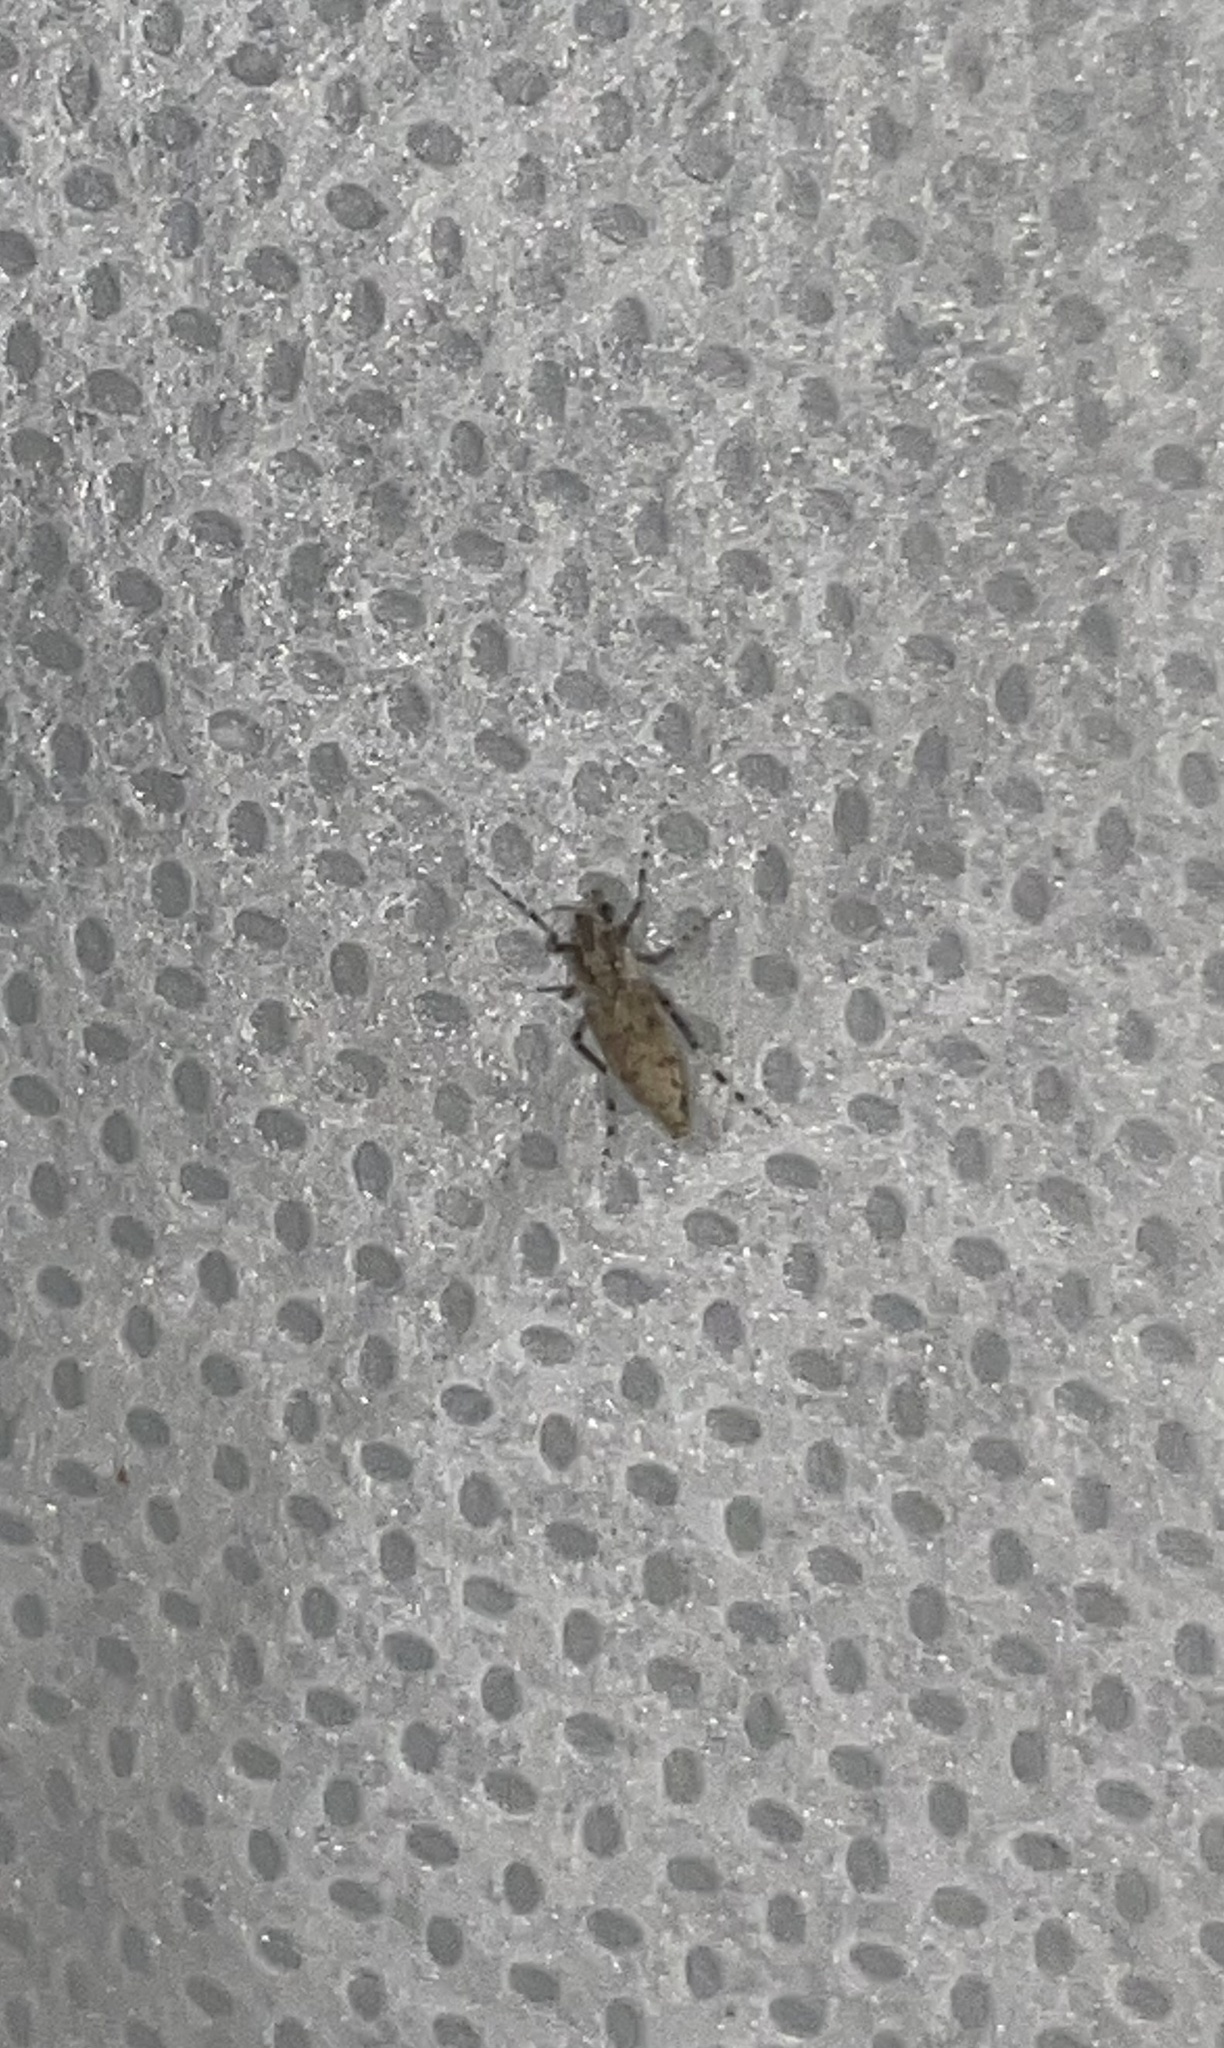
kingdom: Animalia
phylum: Arthropoda
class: Insecta
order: Diptera
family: Chaoboridae
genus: Chaoborus
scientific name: Chaoborus punctipennis
